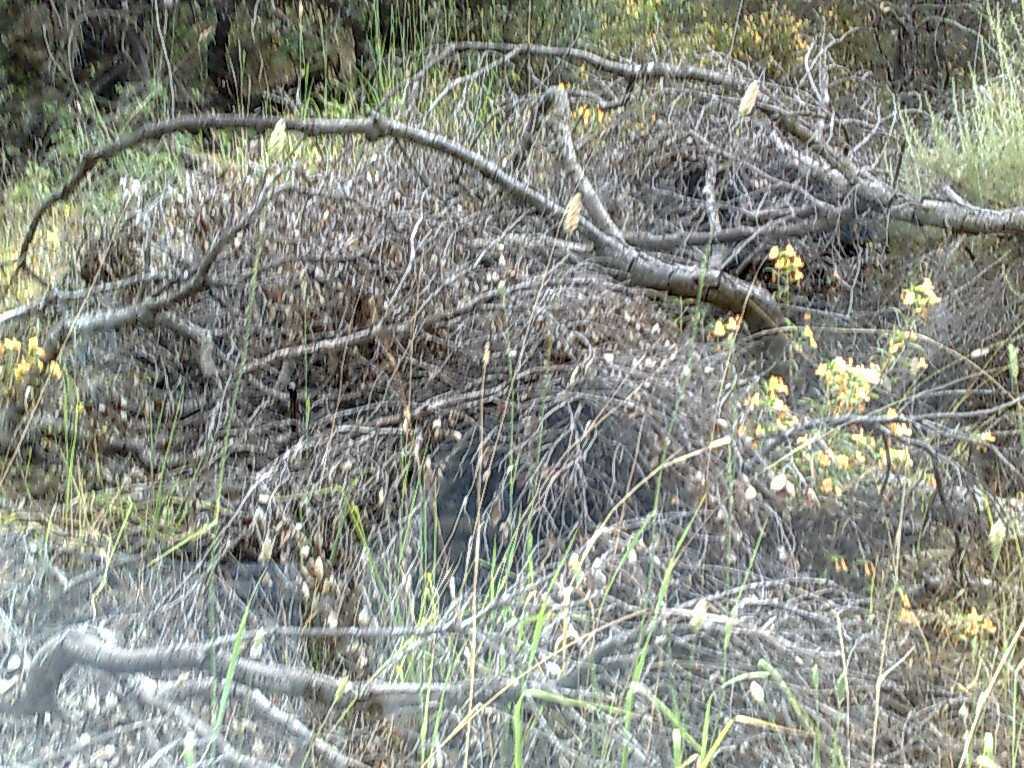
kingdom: Plantae
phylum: Tracheophyta
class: Liliopsida
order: Poales
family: Poaceae
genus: Phalaris
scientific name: Phalaris aquatica
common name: Bulbous canary-grass
